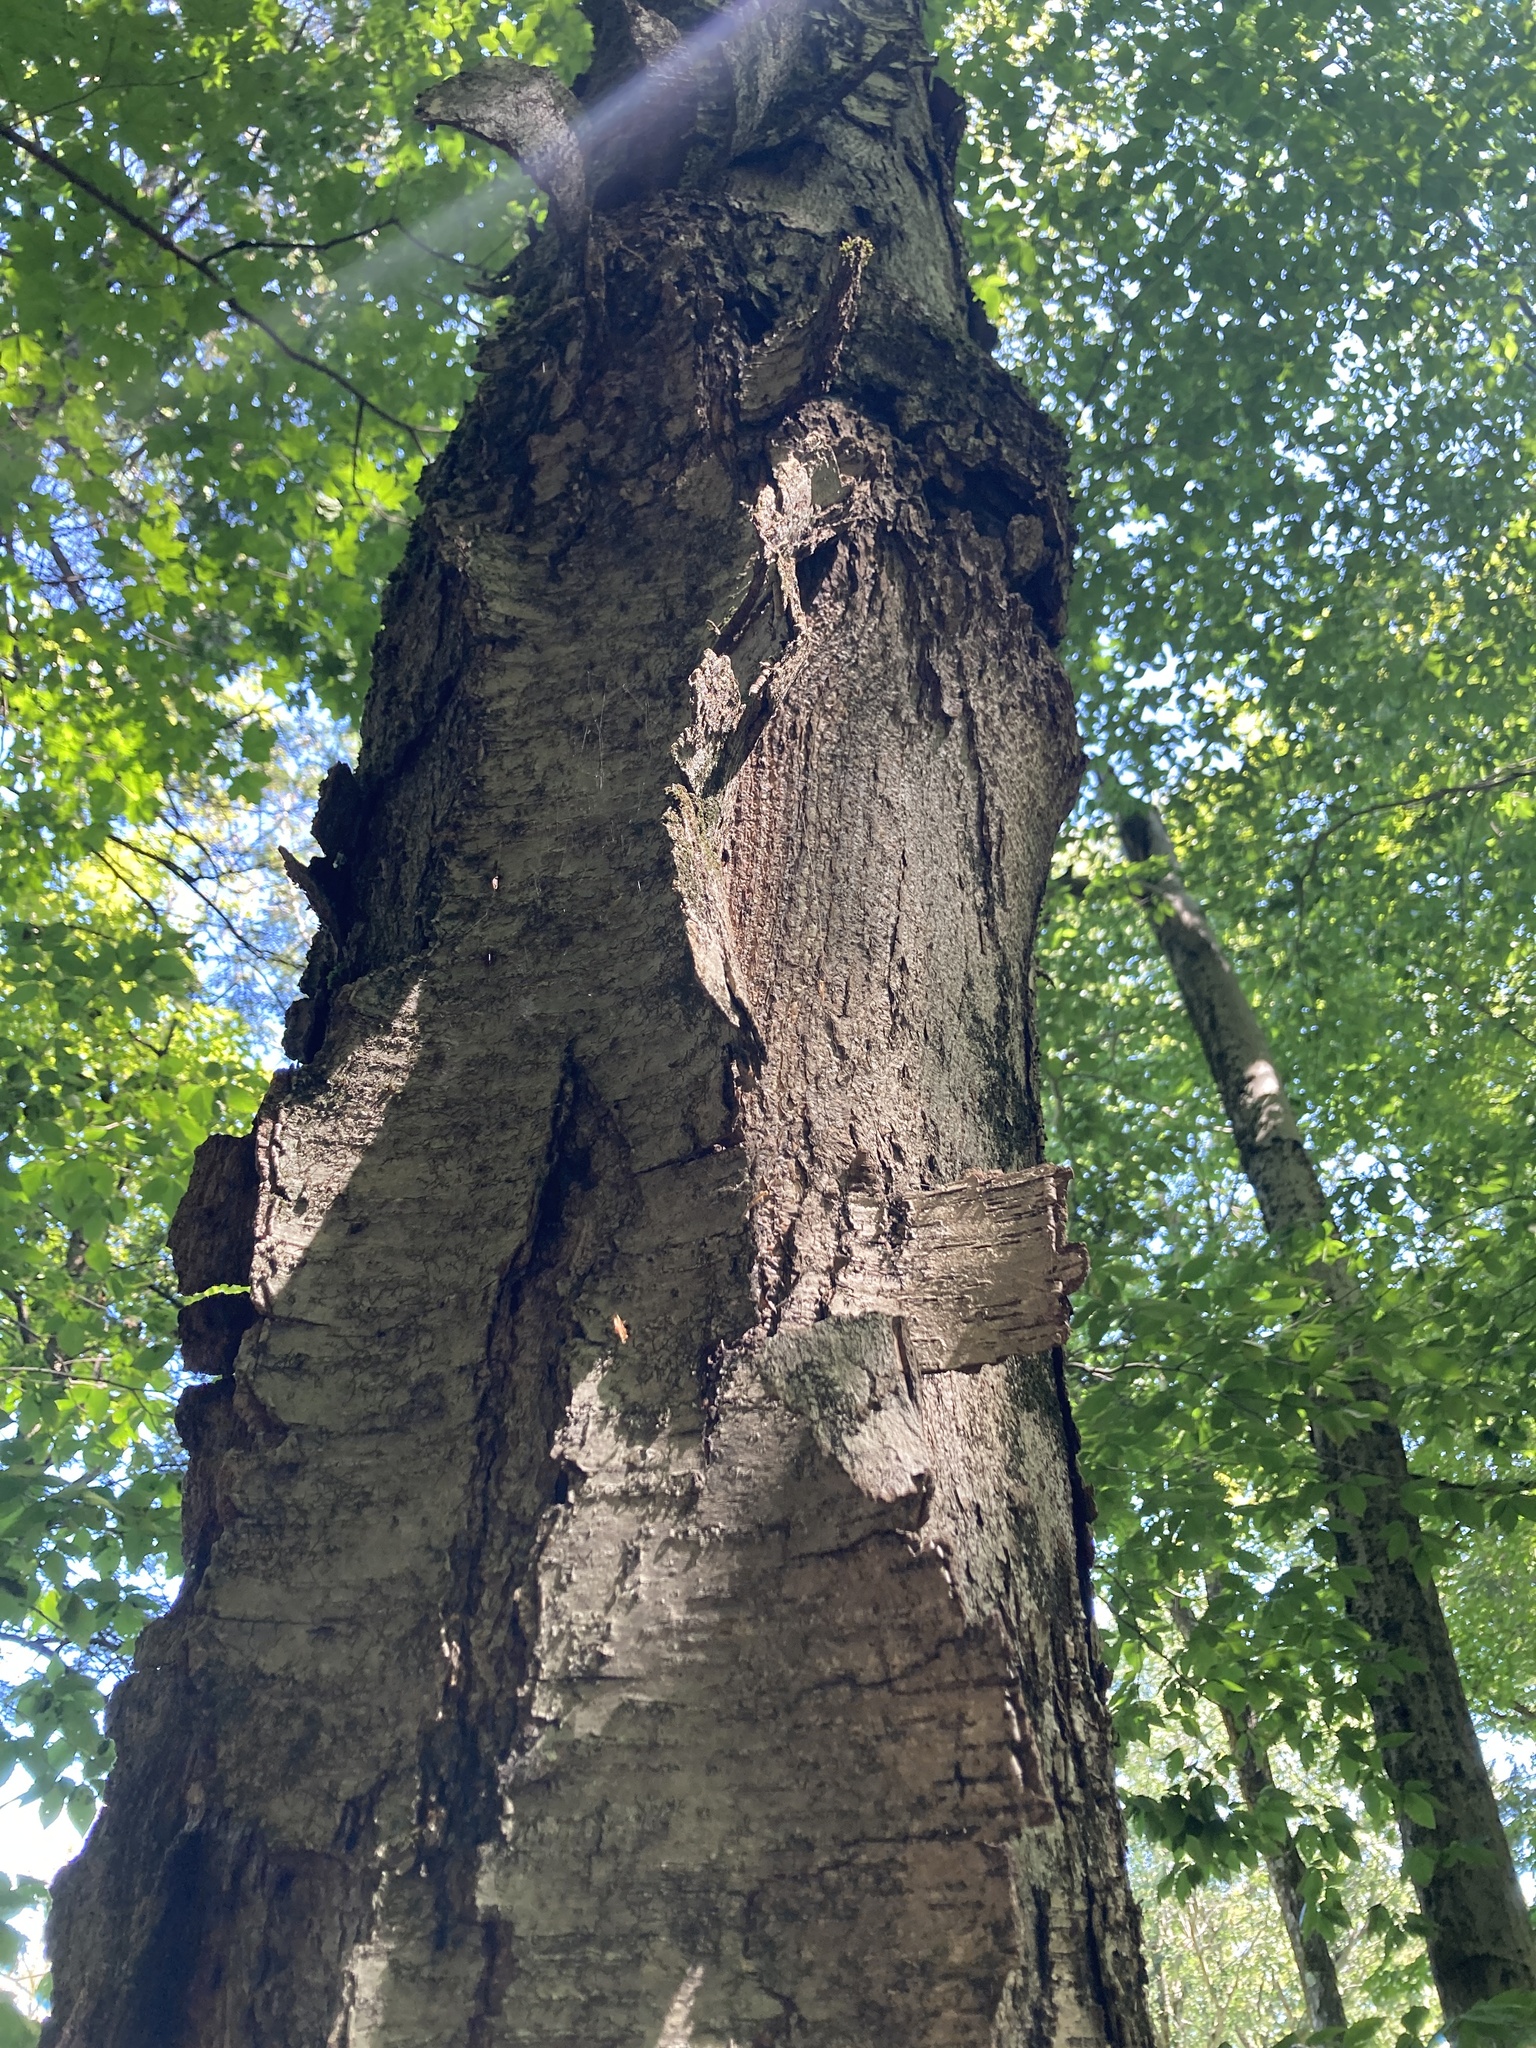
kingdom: Plantae
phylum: Tracheophyta
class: Magnoliopsida
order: Fagales
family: Betulaceae
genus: Betula
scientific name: Betula lenta
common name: Black birch
